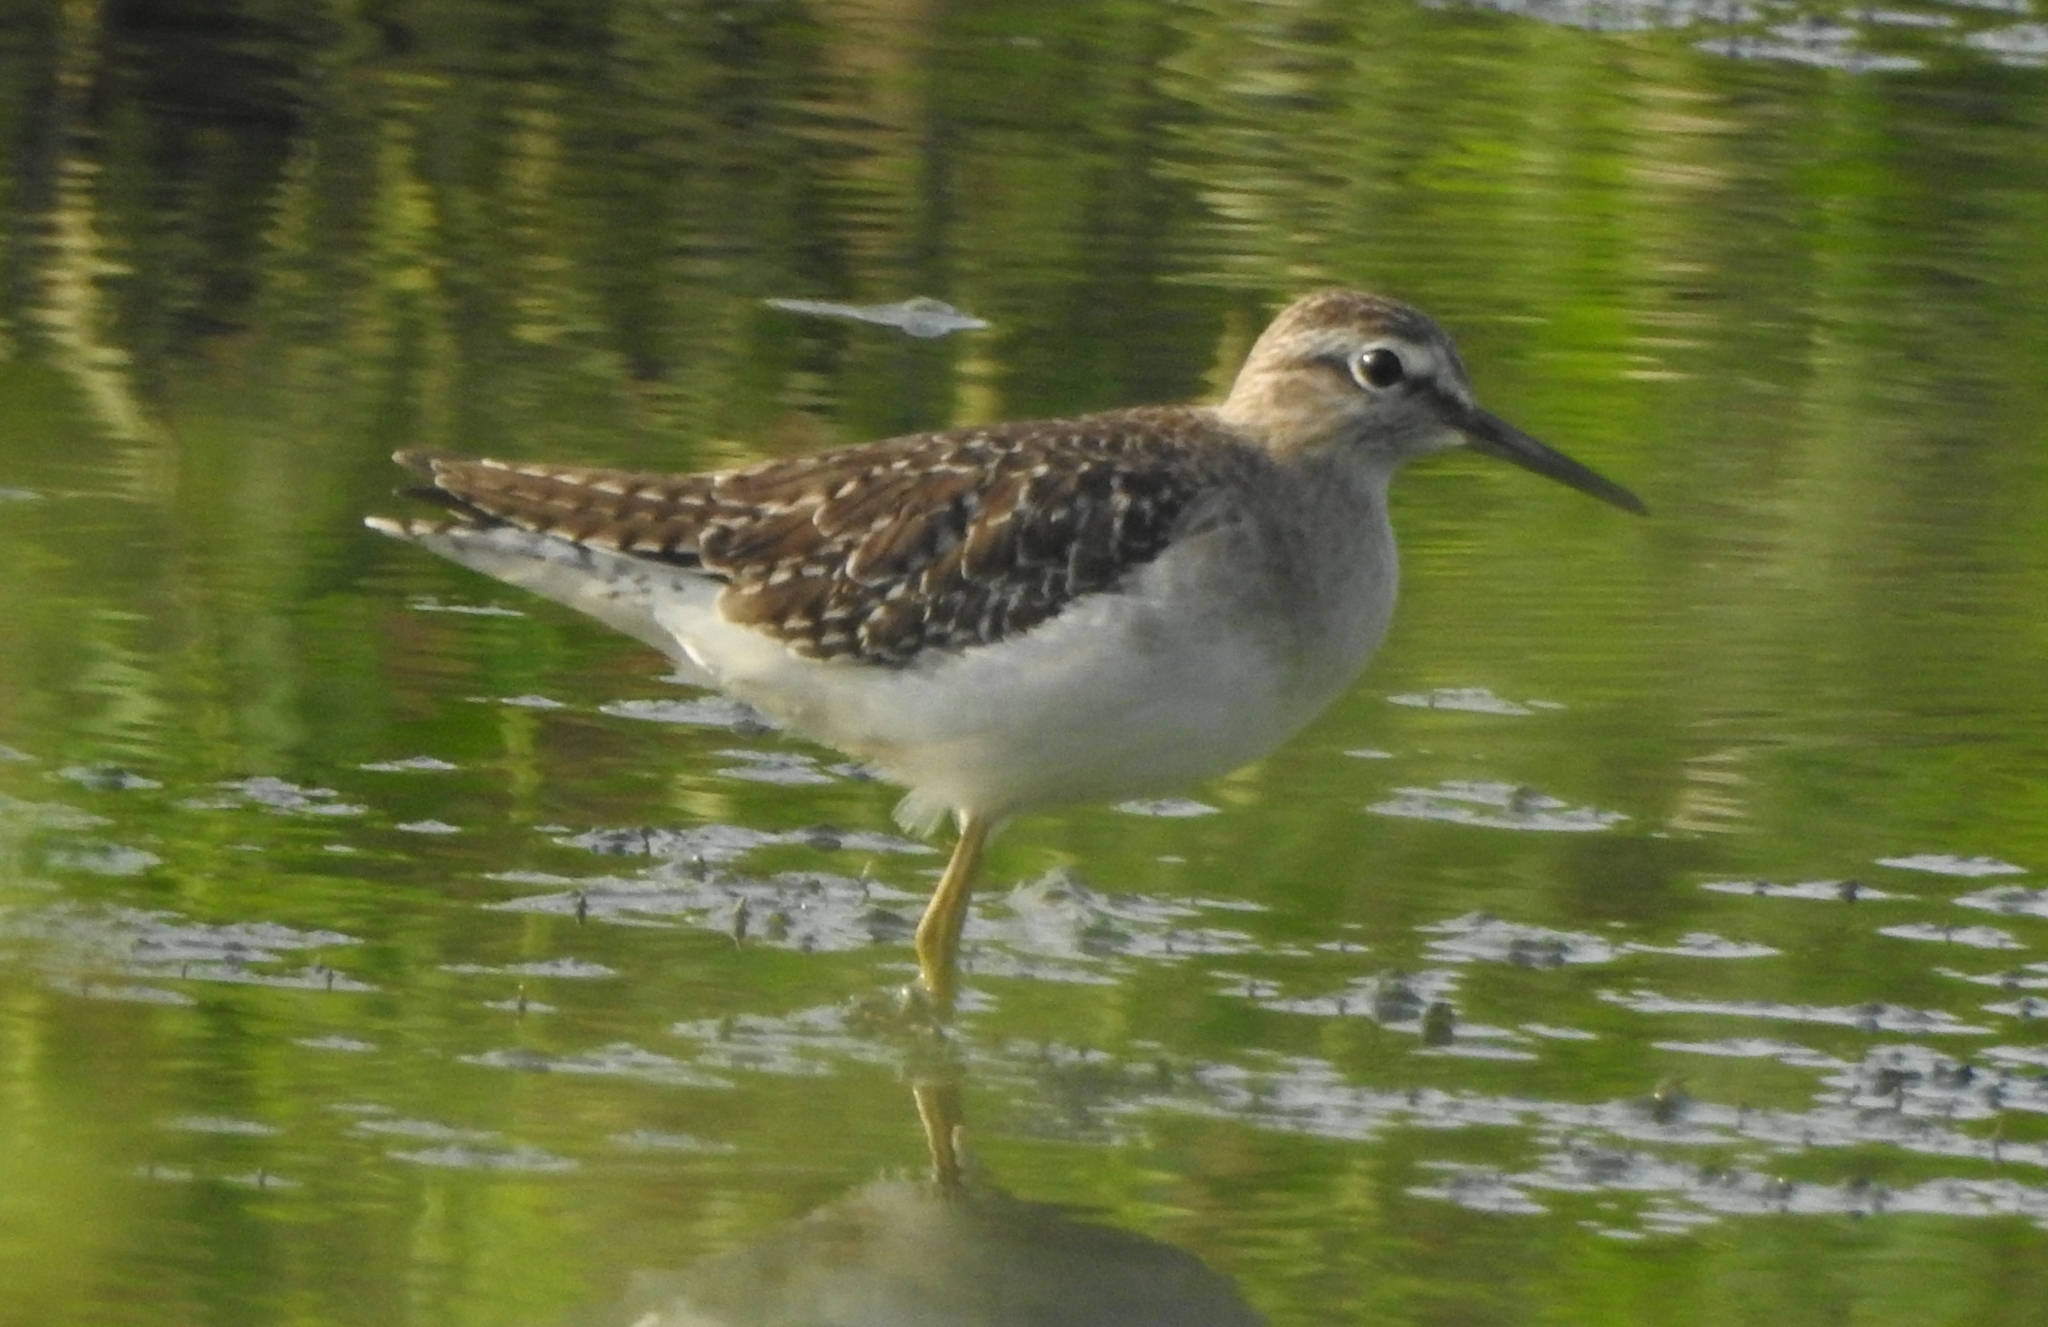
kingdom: Animalia
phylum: Chordata
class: Aves
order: Charadriiformes
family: Scolopacidae
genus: Tringa
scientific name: Tringa glareola
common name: Wood sandpiper
